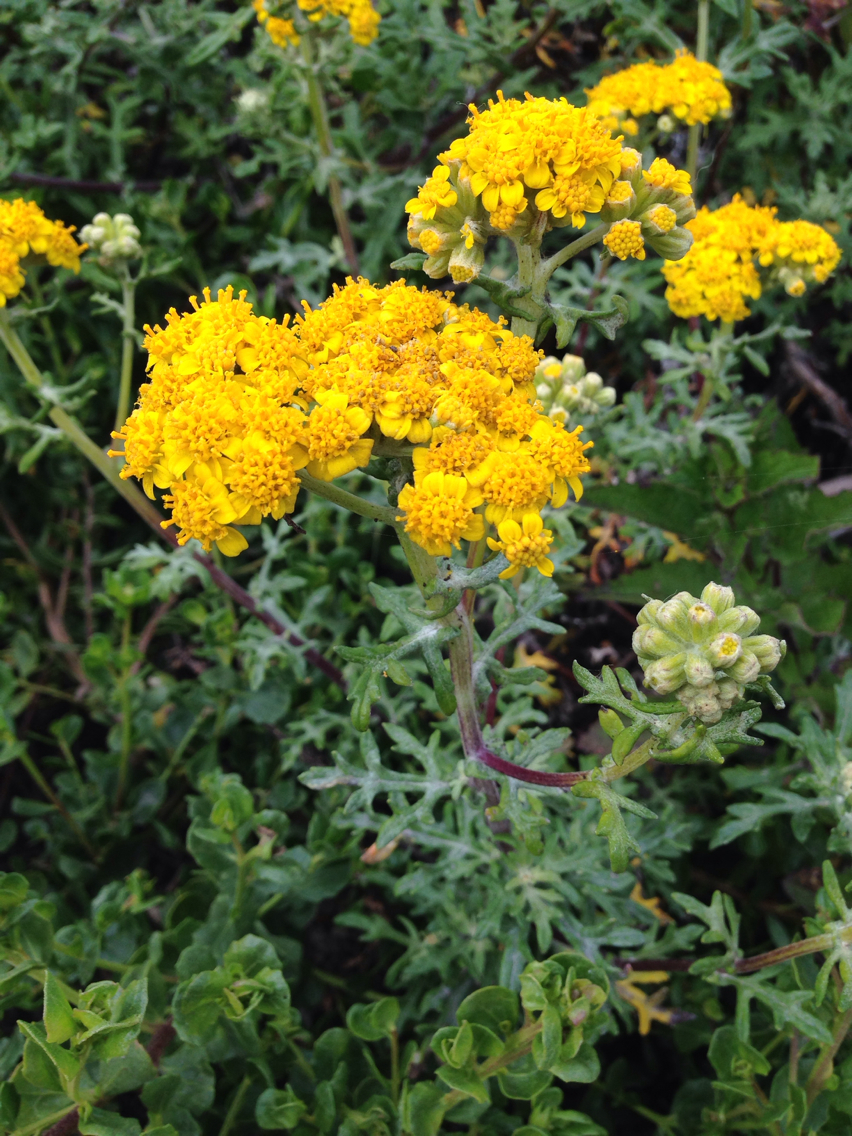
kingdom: Plantae
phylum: Tracheophyta
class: Magnoliopsida
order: Asterales
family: Asteraceae
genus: Eriophyllum
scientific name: Eriophyllum staechadifolium
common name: Lizardtail
